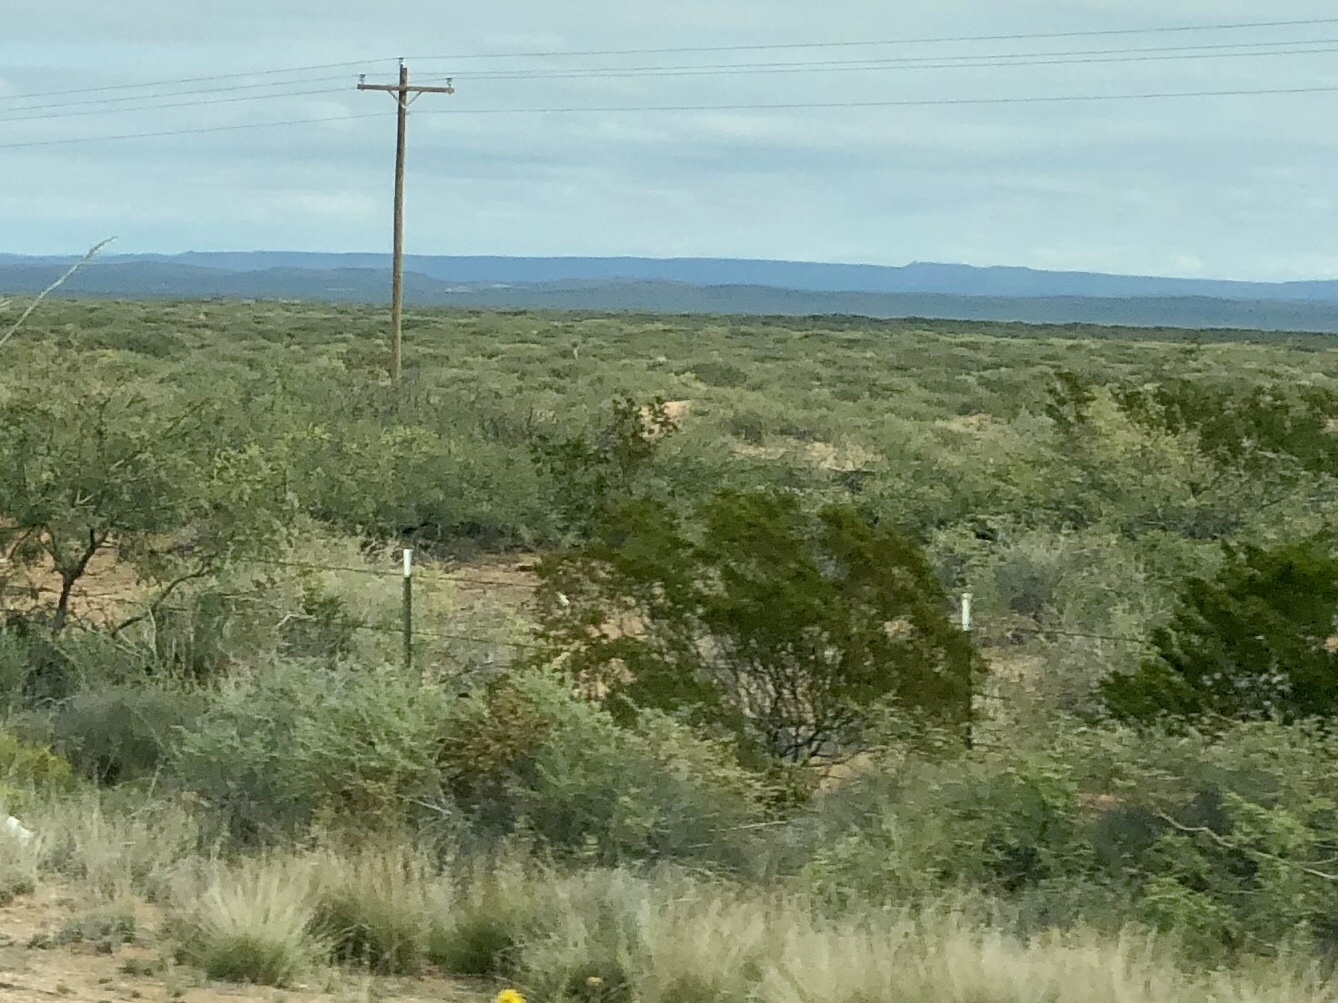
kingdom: Plantae
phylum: Tracheophyta
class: Magnoliopsida
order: Zygophyllales
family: Zygophyllaceae
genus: Larrea
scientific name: Larrea tridentata
